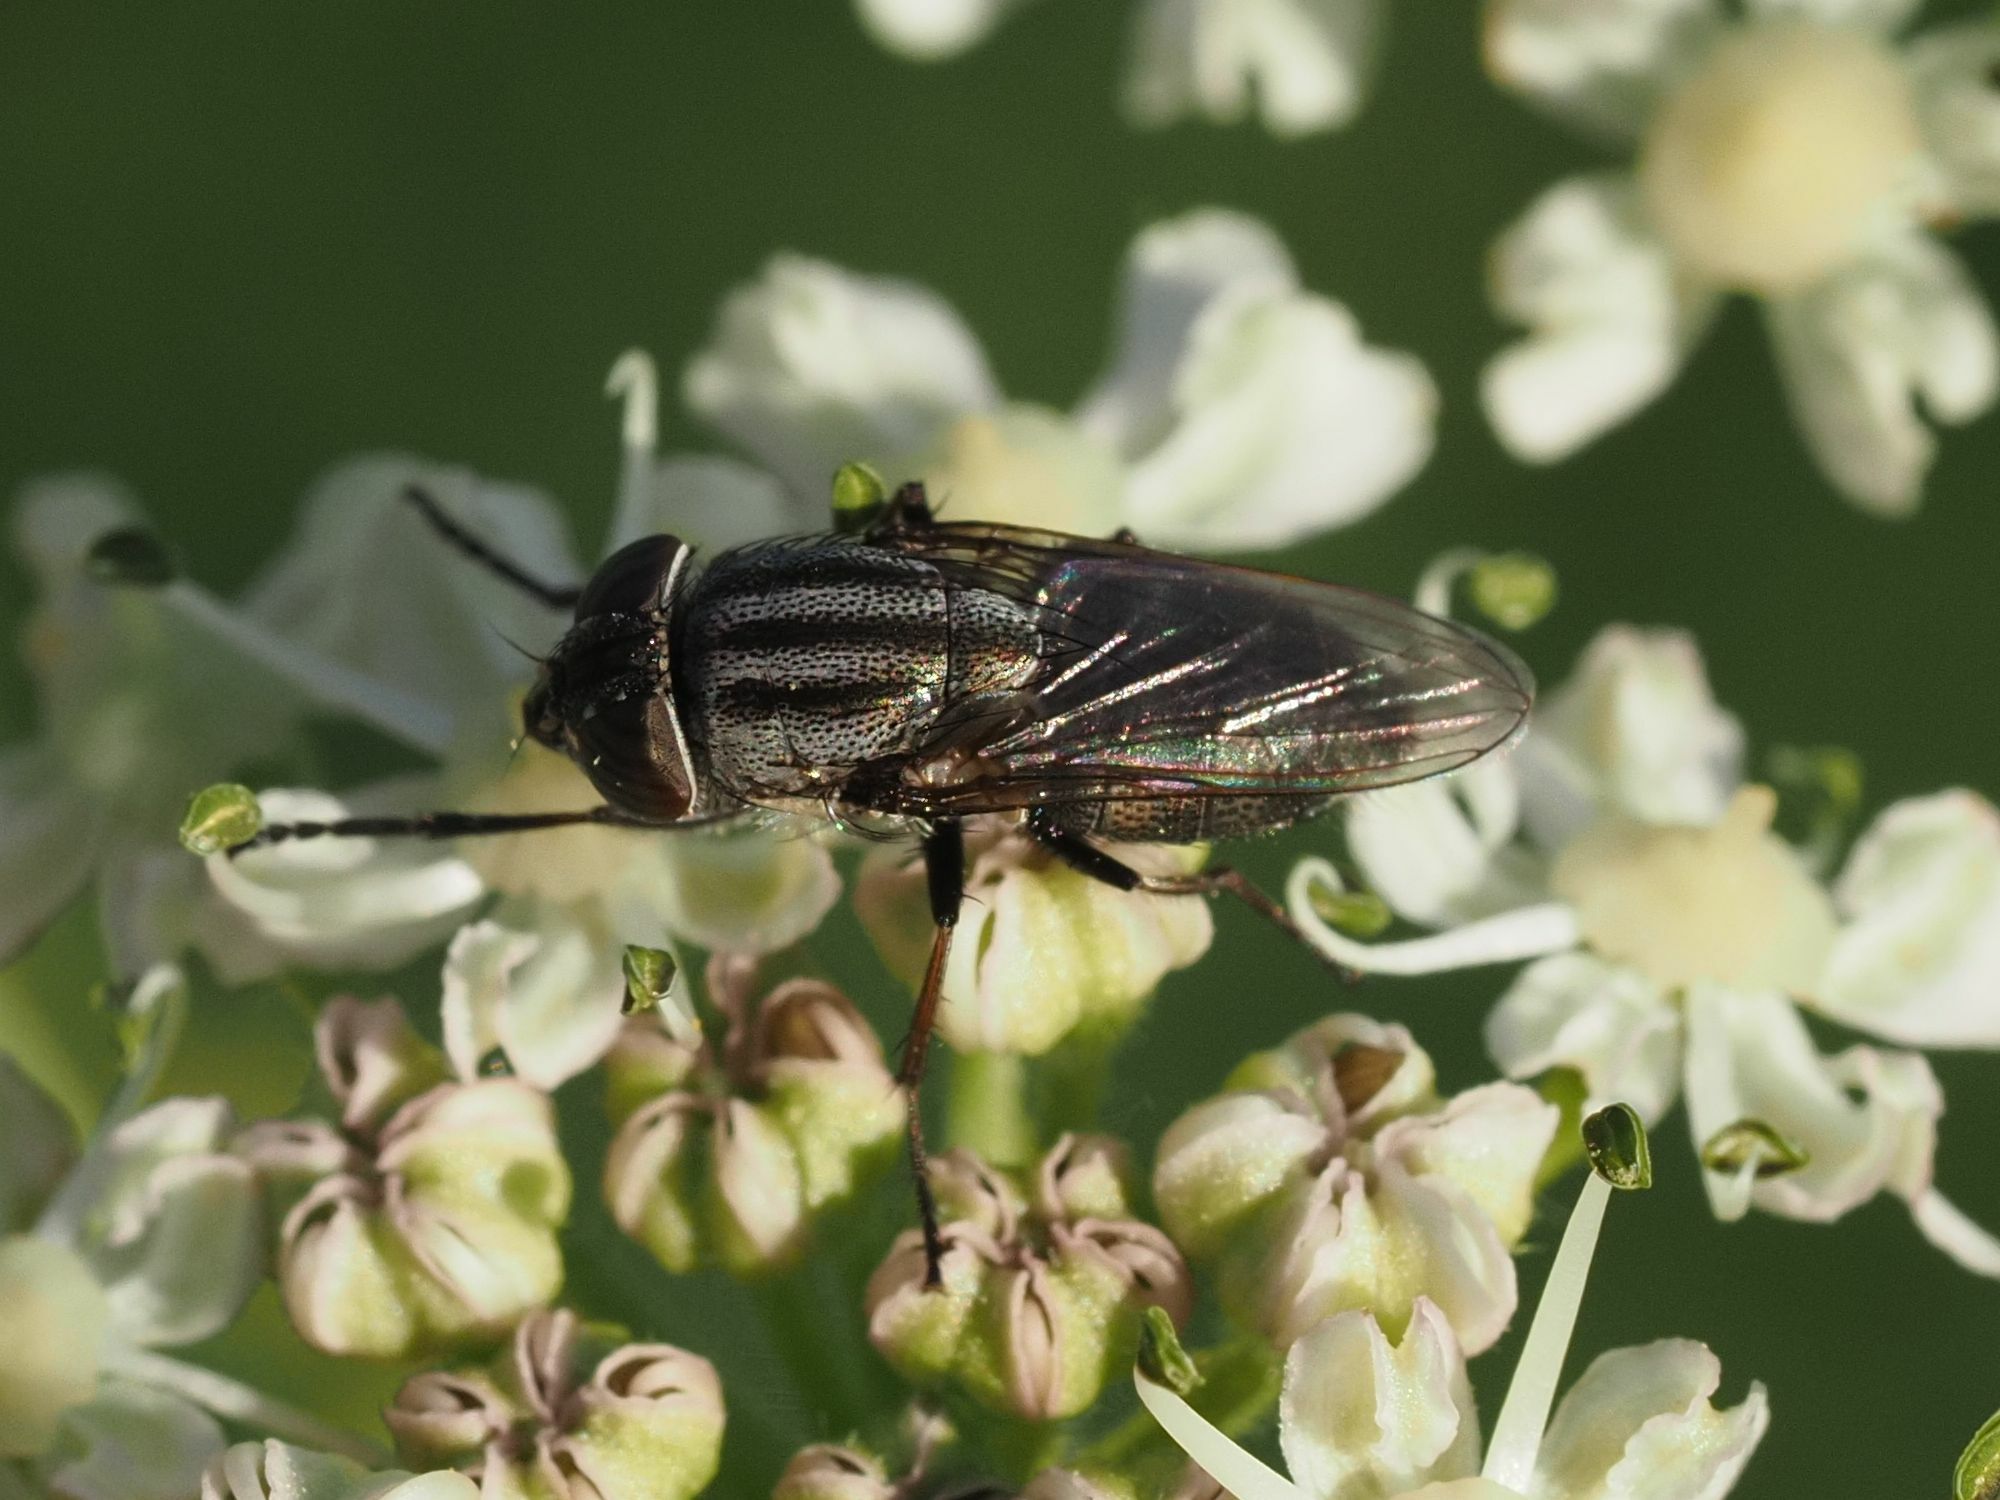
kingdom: Animalia
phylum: Arthropoda
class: Insecta
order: Diptera
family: Calliphoridae
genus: Stomorhina
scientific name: Stomorhina lunata
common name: Locust blowfly
